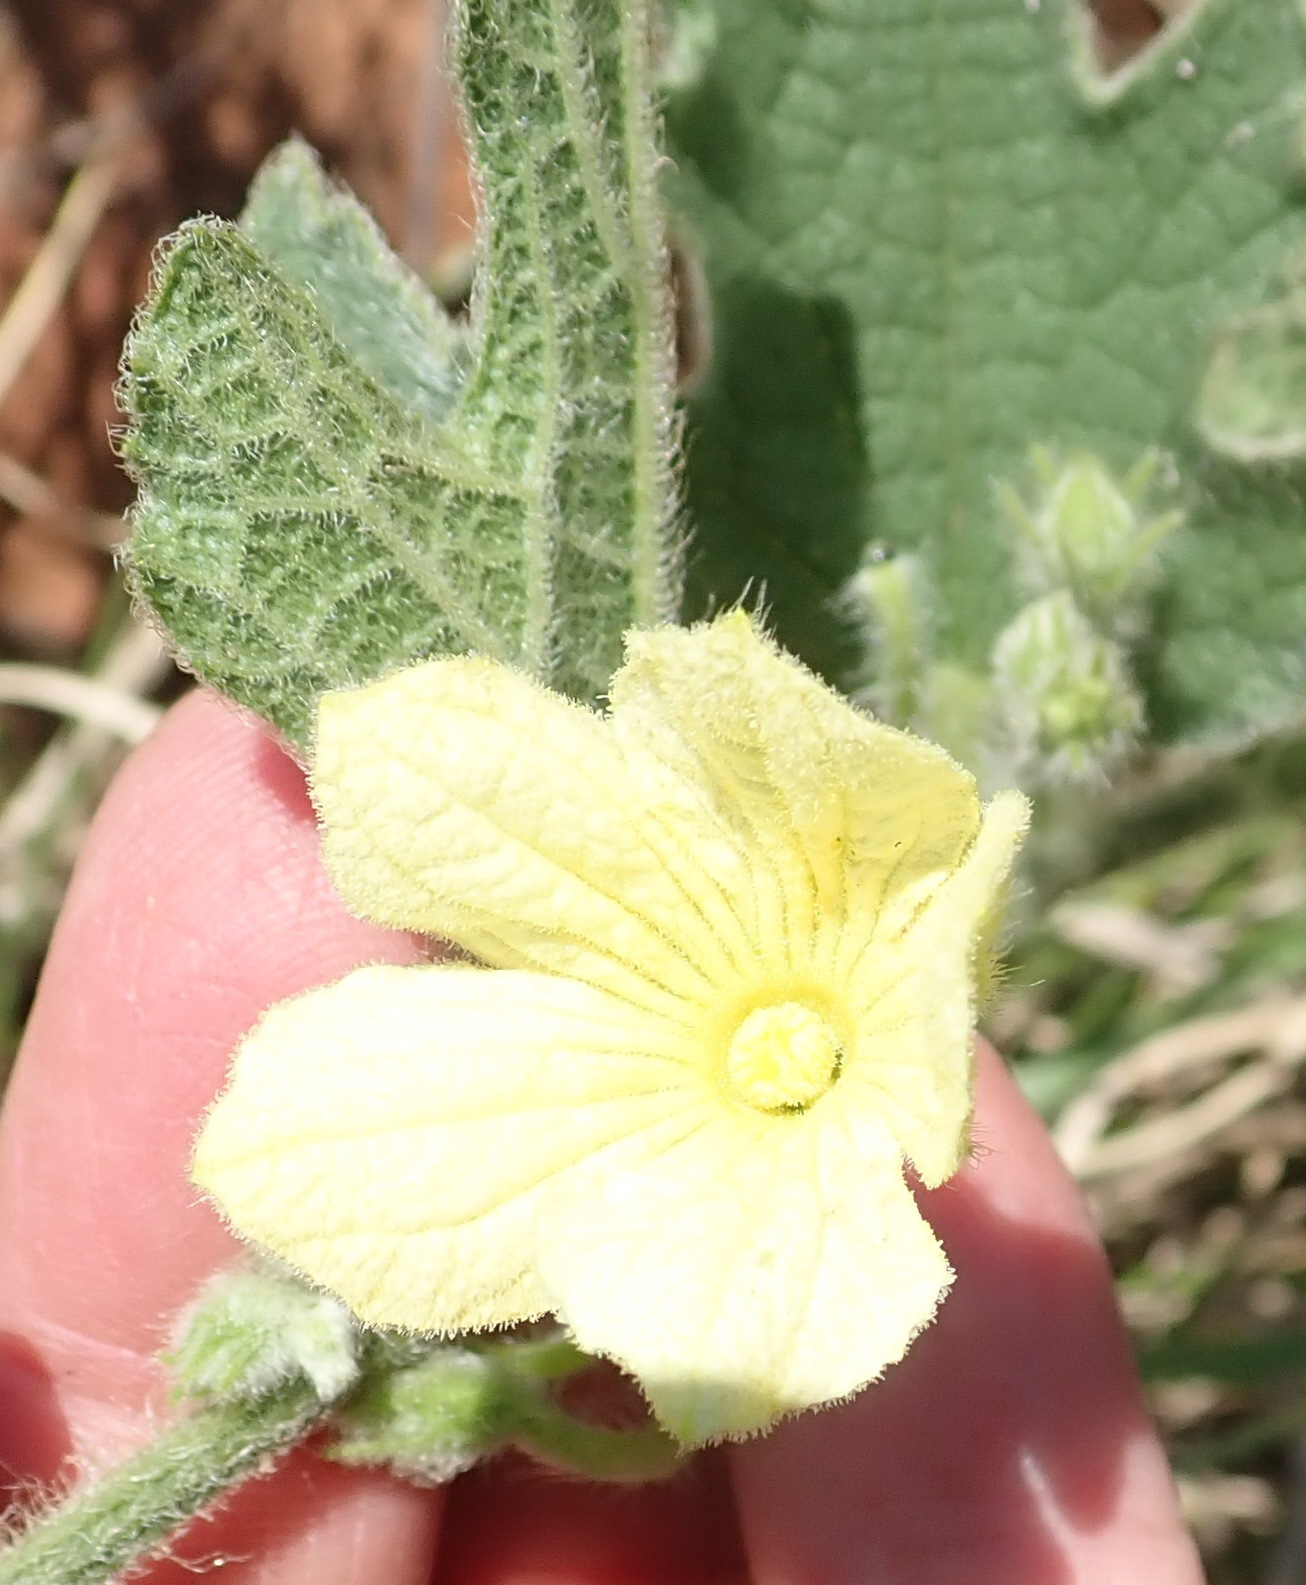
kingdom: Plantae
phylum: Tracheophyta
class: Magnoliopsida
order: Cucurbitales
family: Cucurbitaceae
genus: Cucumis
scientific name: Cucumis hirsutus
